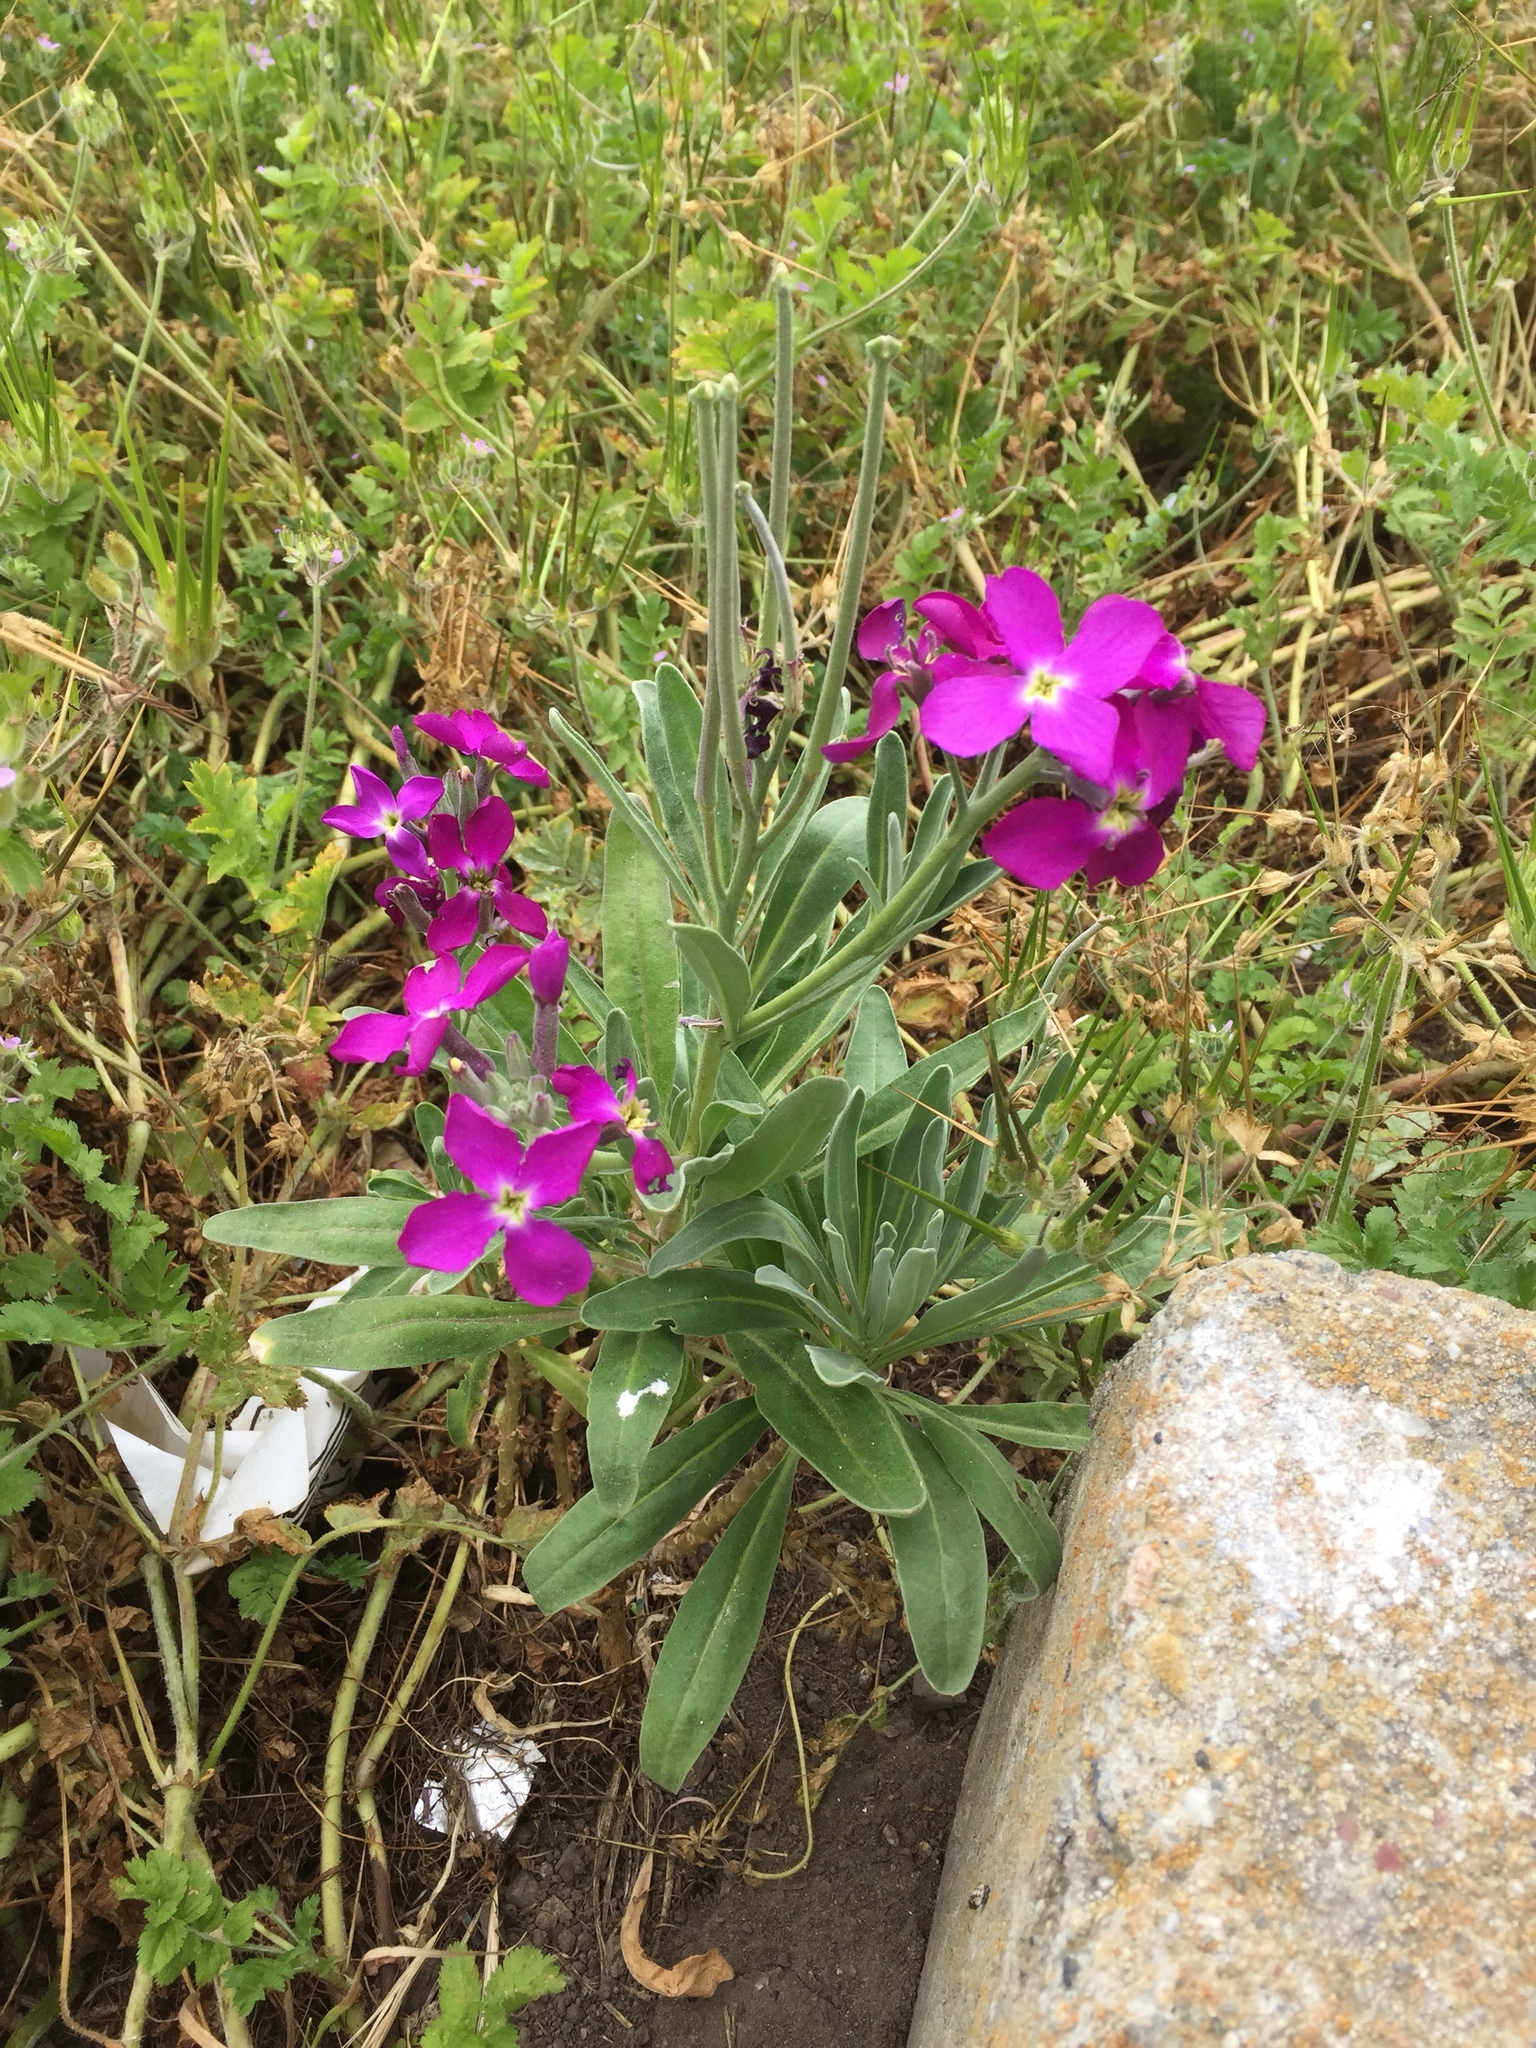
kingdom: Plantae
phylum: Tracheophyta
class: Magnoliopsida
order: Brassicales
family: Brassicaceae
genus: Matthiola
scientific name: Matthiola incana
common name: Hoary stock
